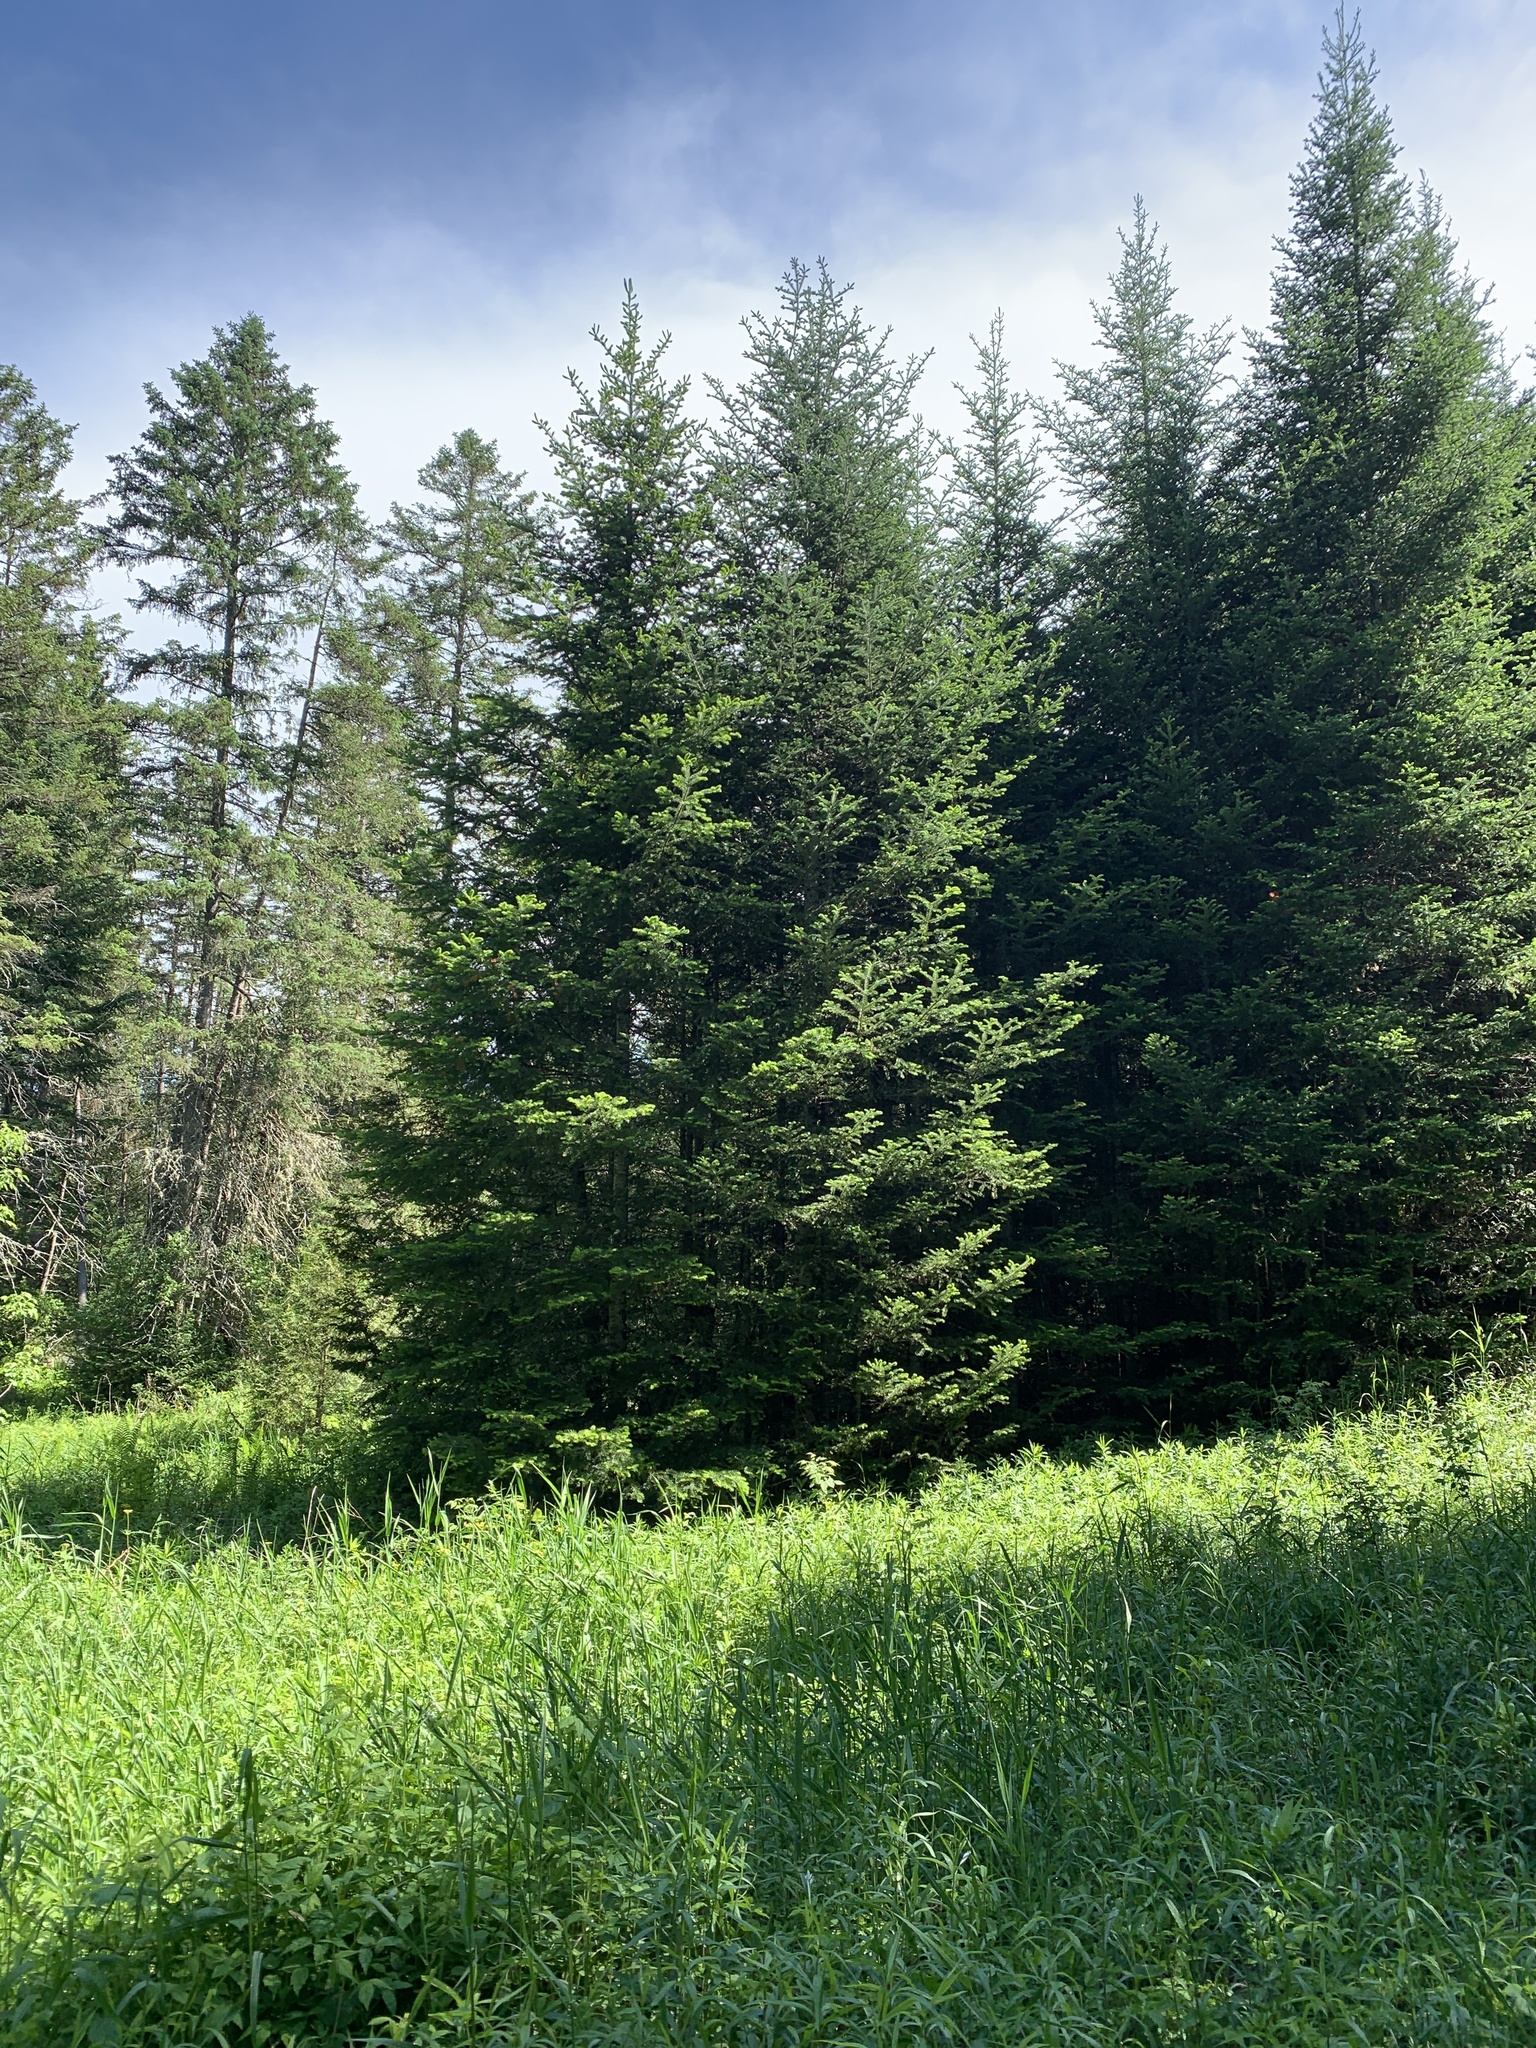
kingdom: Plantae
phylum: Tracheophyta
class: Pinopsida
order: Pinales
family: Pinaceae
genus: Abies
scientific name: Abies balsamea
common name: Balsam fir
